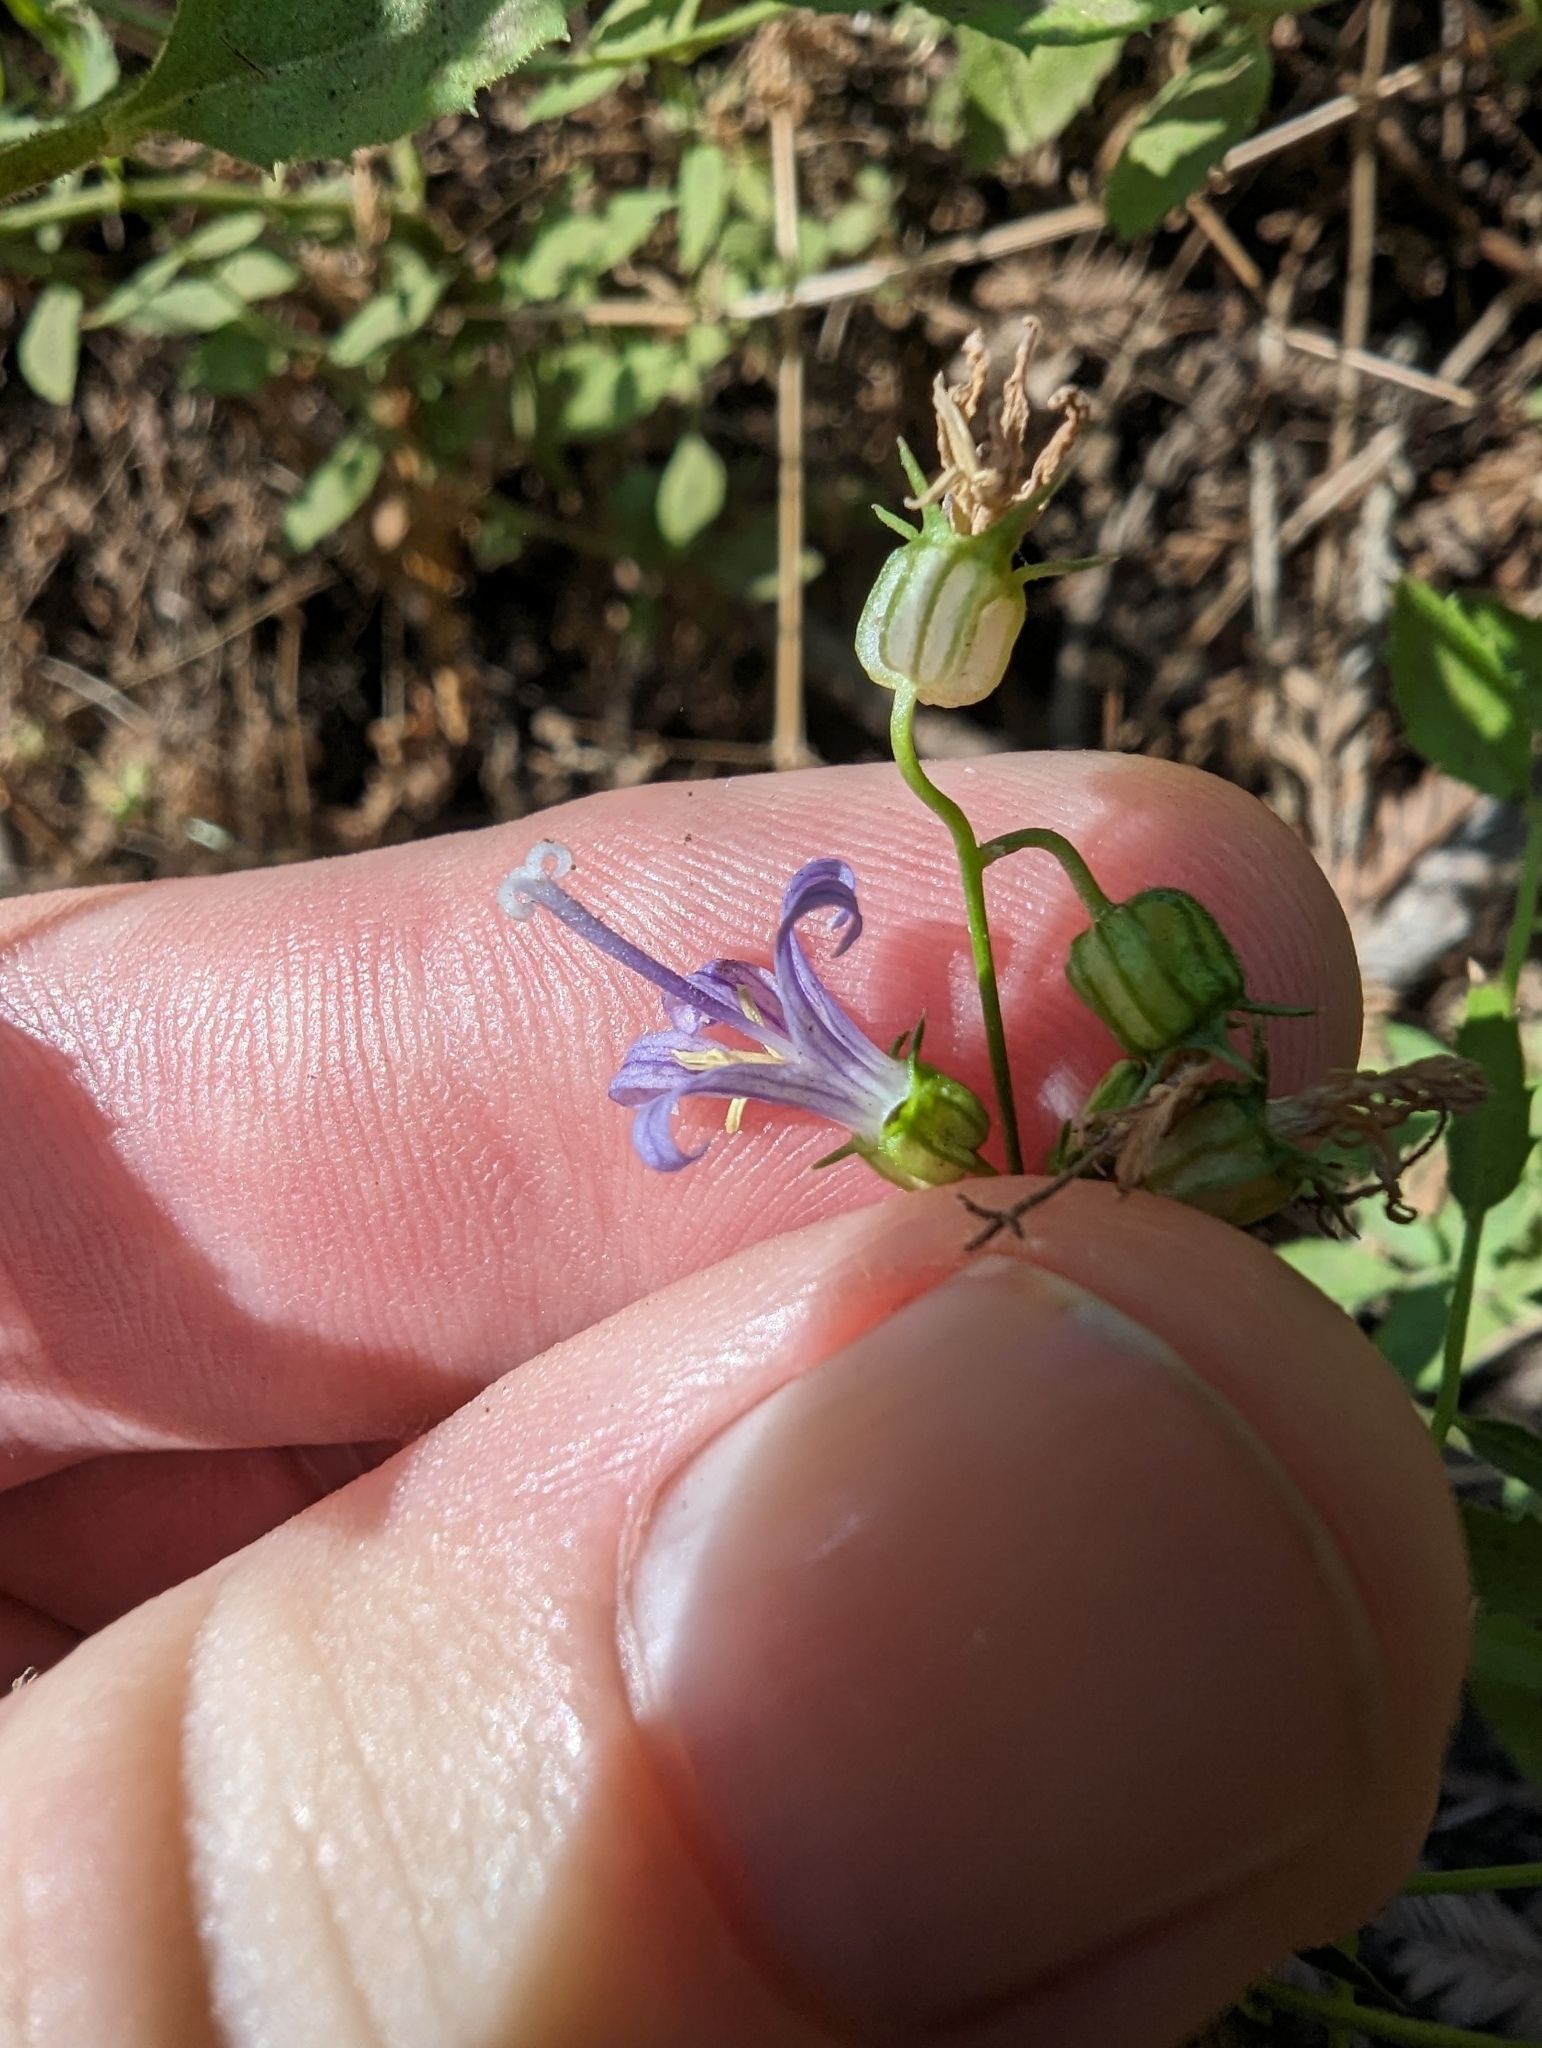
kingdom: Plantae
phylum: Tracheophyta
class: Magnoliopsida
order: Asterales
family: Campanulaceae
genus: Smithiastrum
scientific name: Smithiastrum prenanthoides
